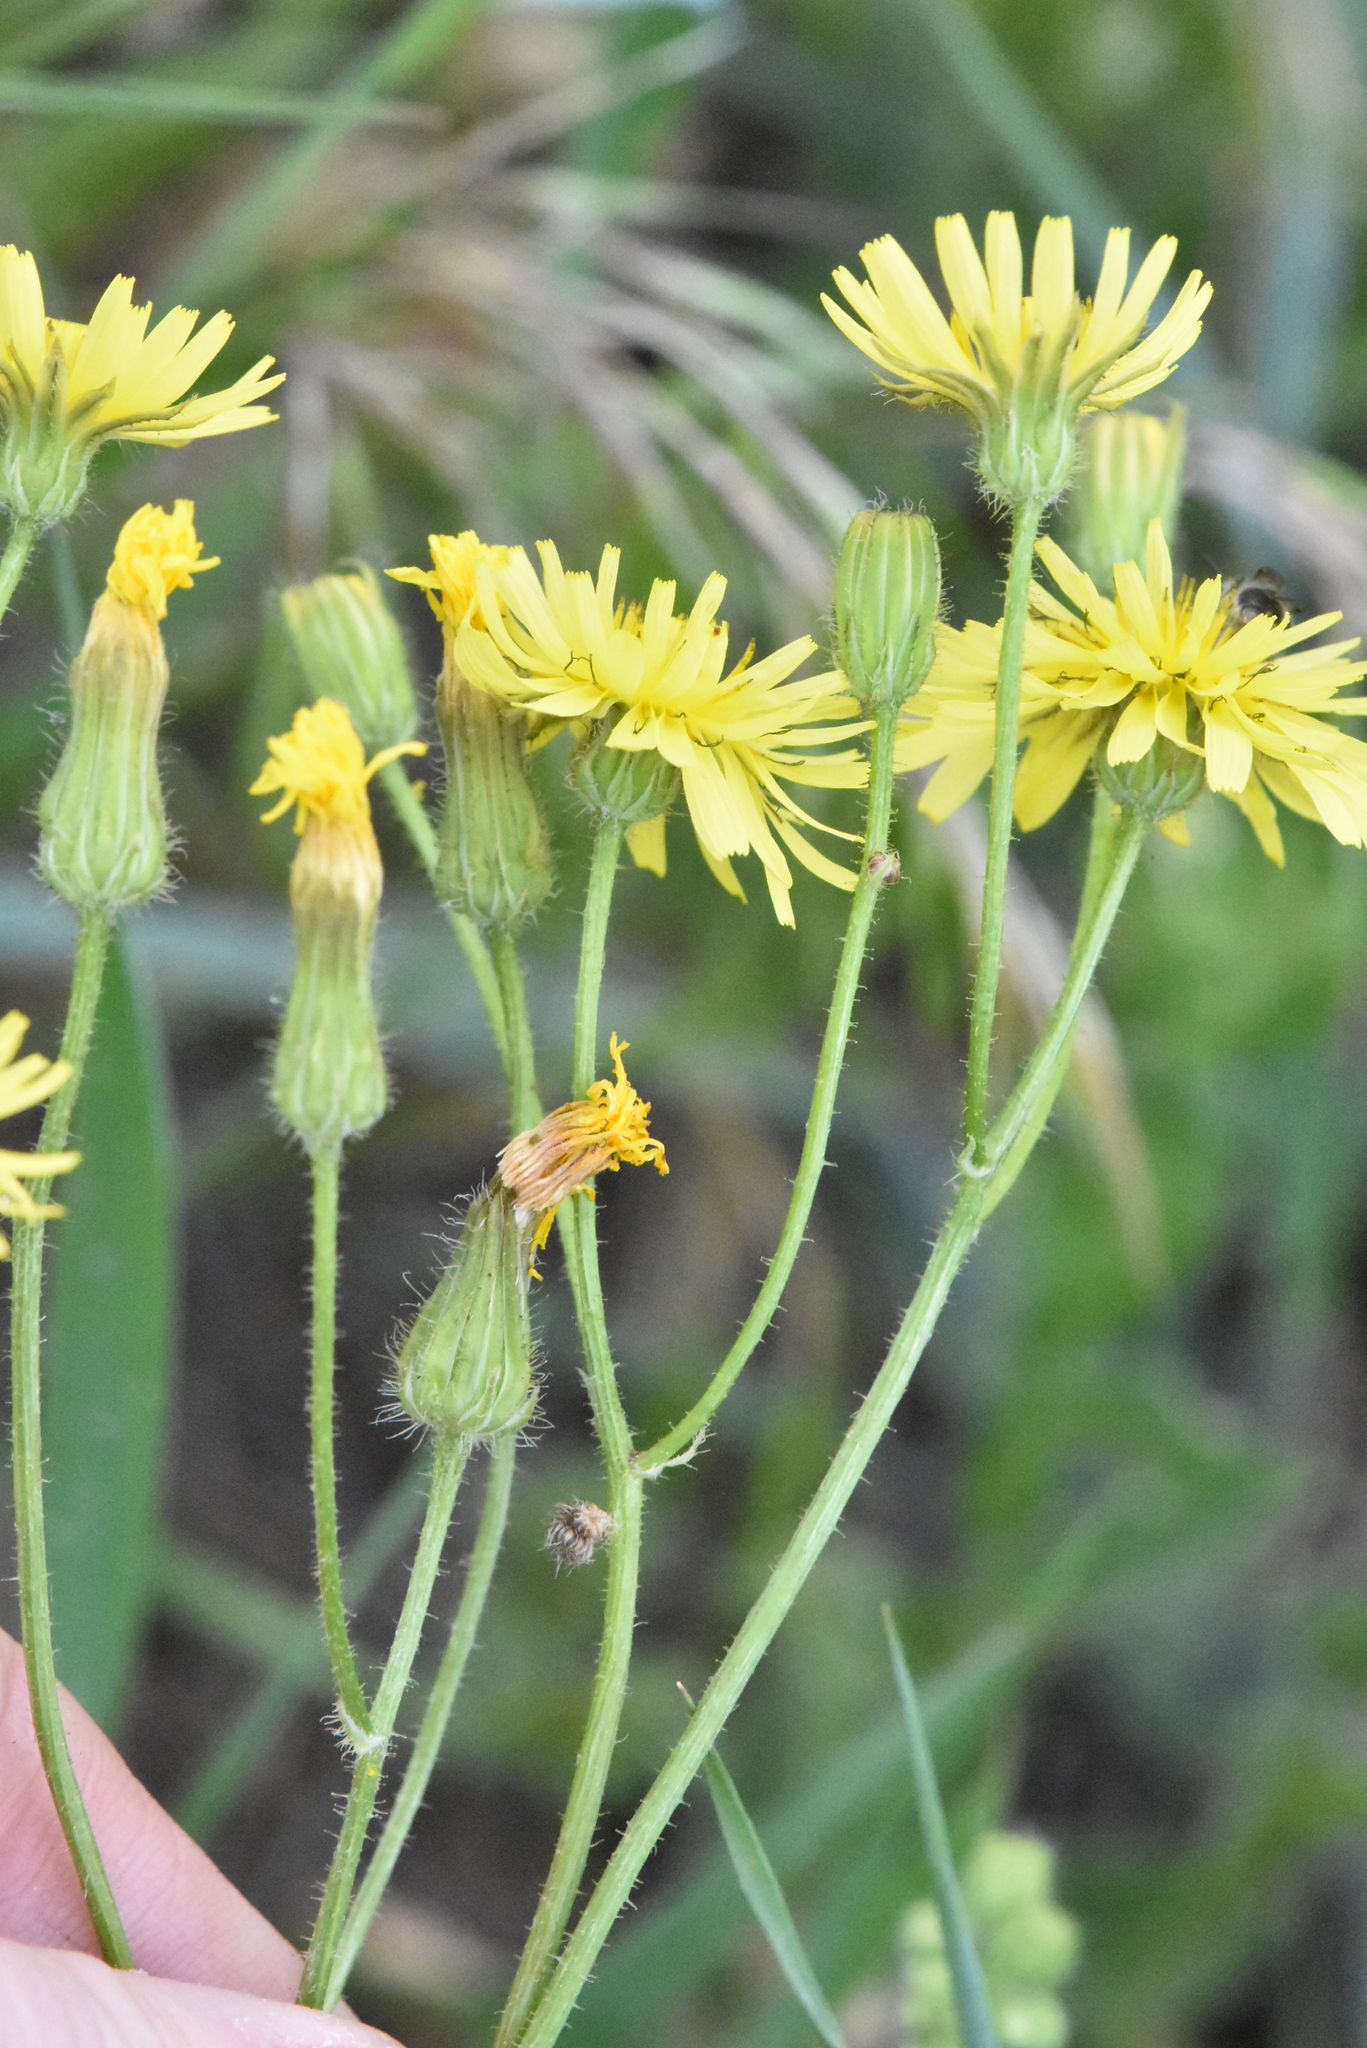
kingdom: Plantae
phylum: Tracheophyta
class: Magnoliopsida
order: Asterales
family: Asteraceae
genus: Crepis
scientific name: Crepis sancta
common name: Hawk's-beard
